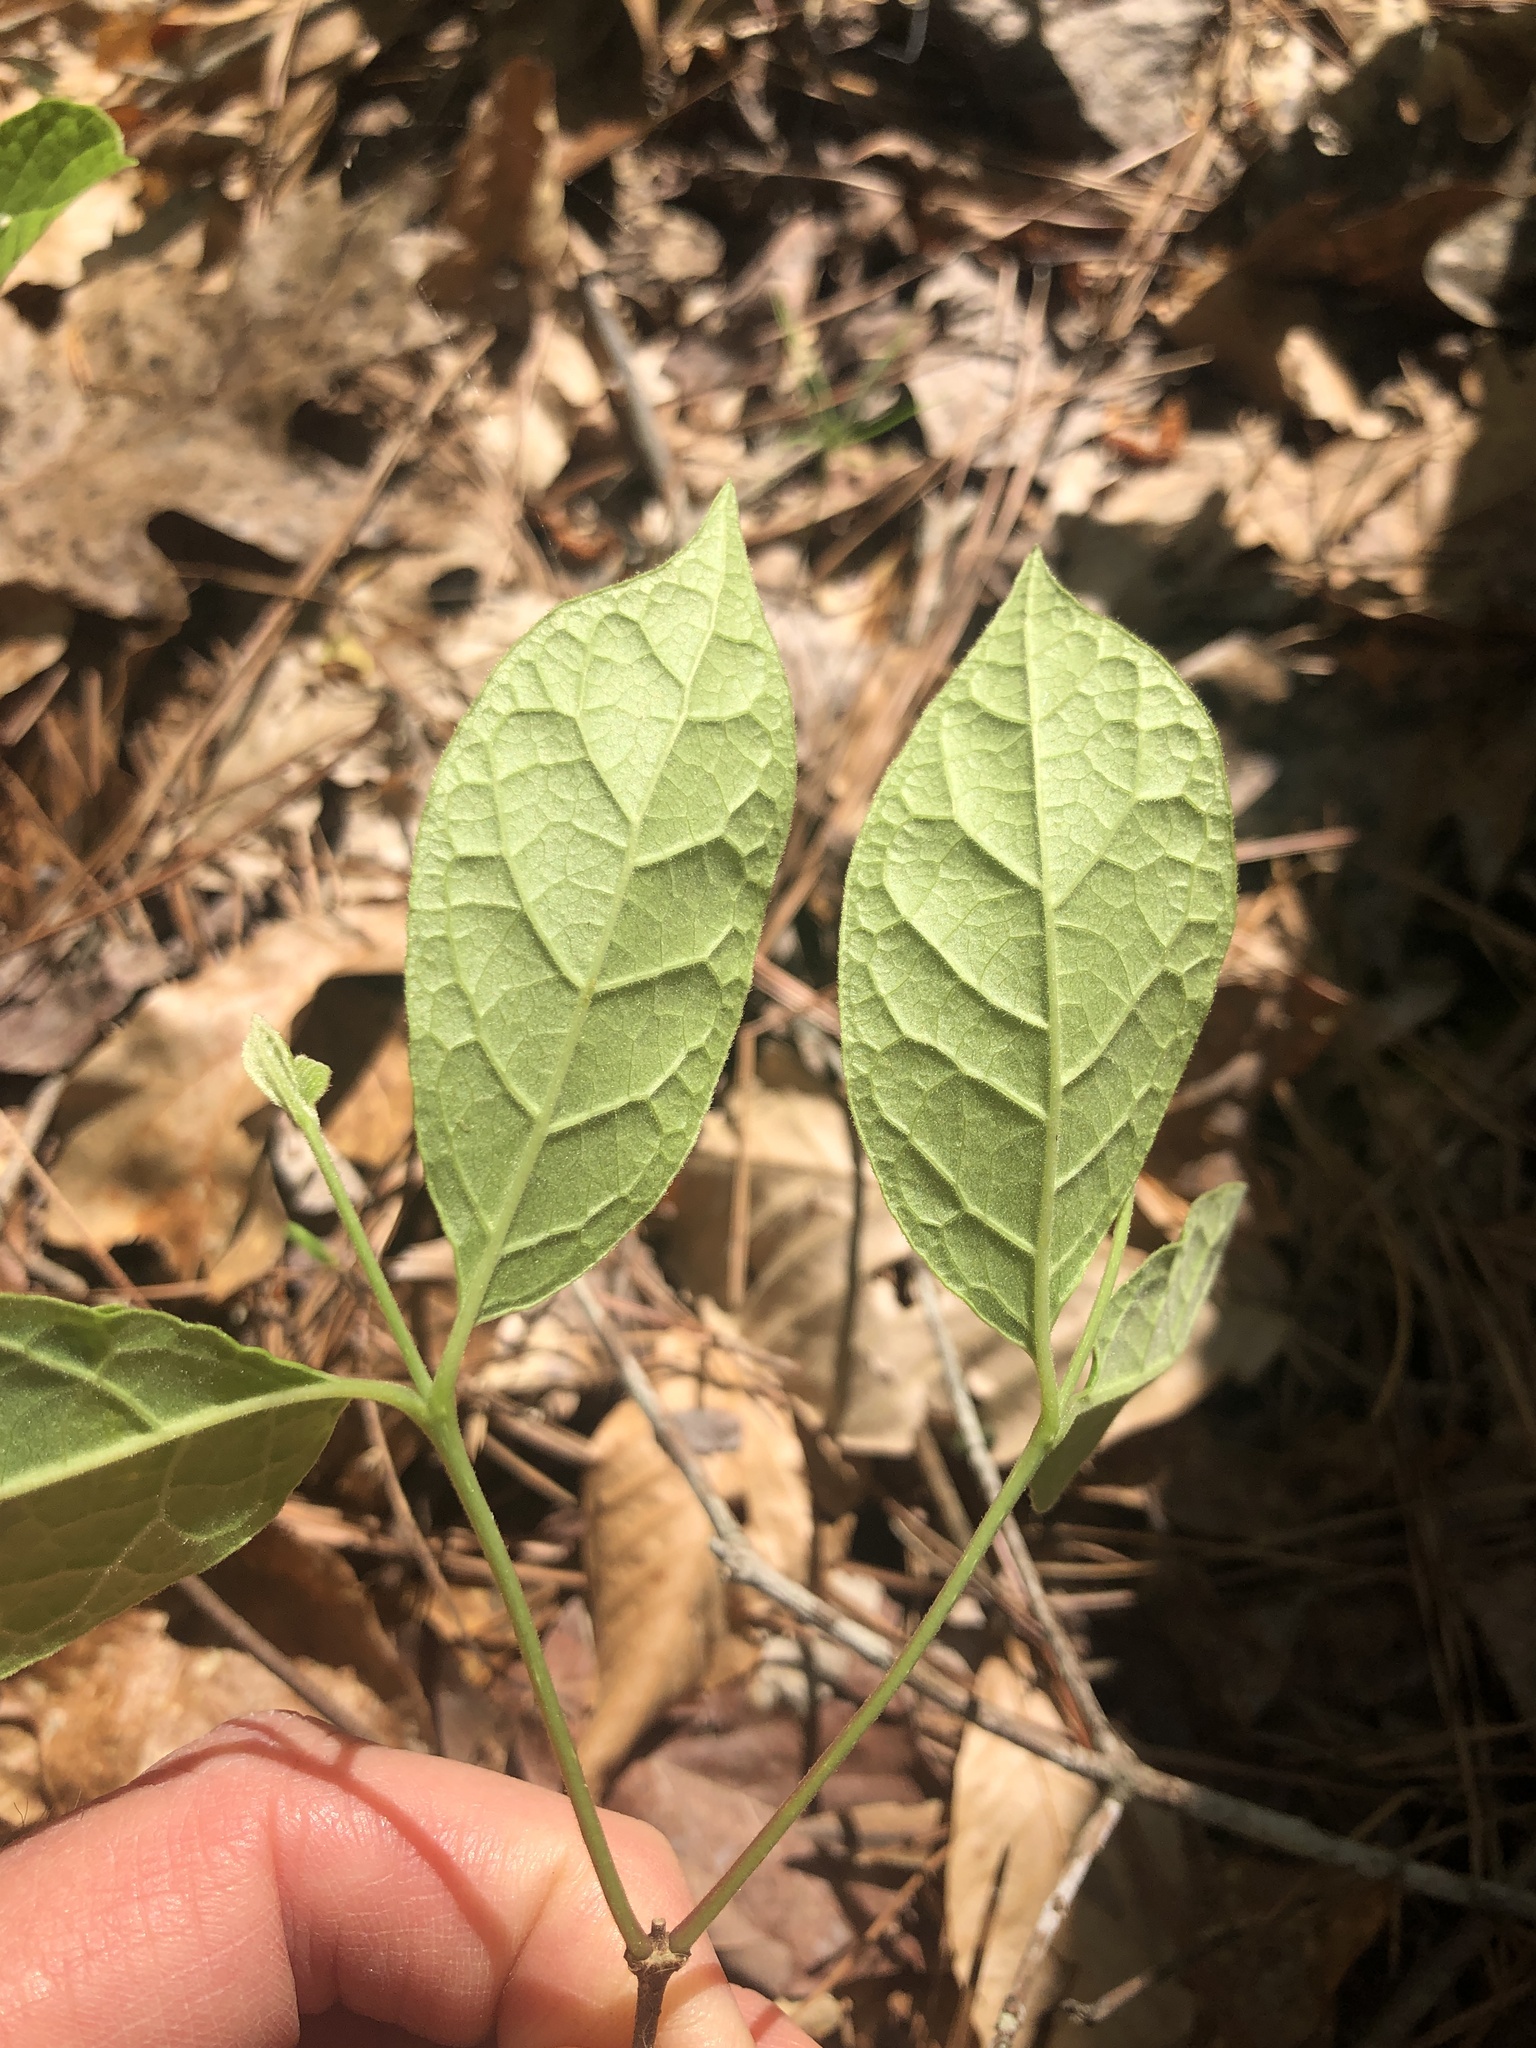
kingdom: Plantae
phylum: Tracheophyta
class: Magnoliopsida
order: Laurales
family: Calycanthaceae
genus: Calycanthus
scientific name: Calycanthus floridus
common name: Carolina-allspice
